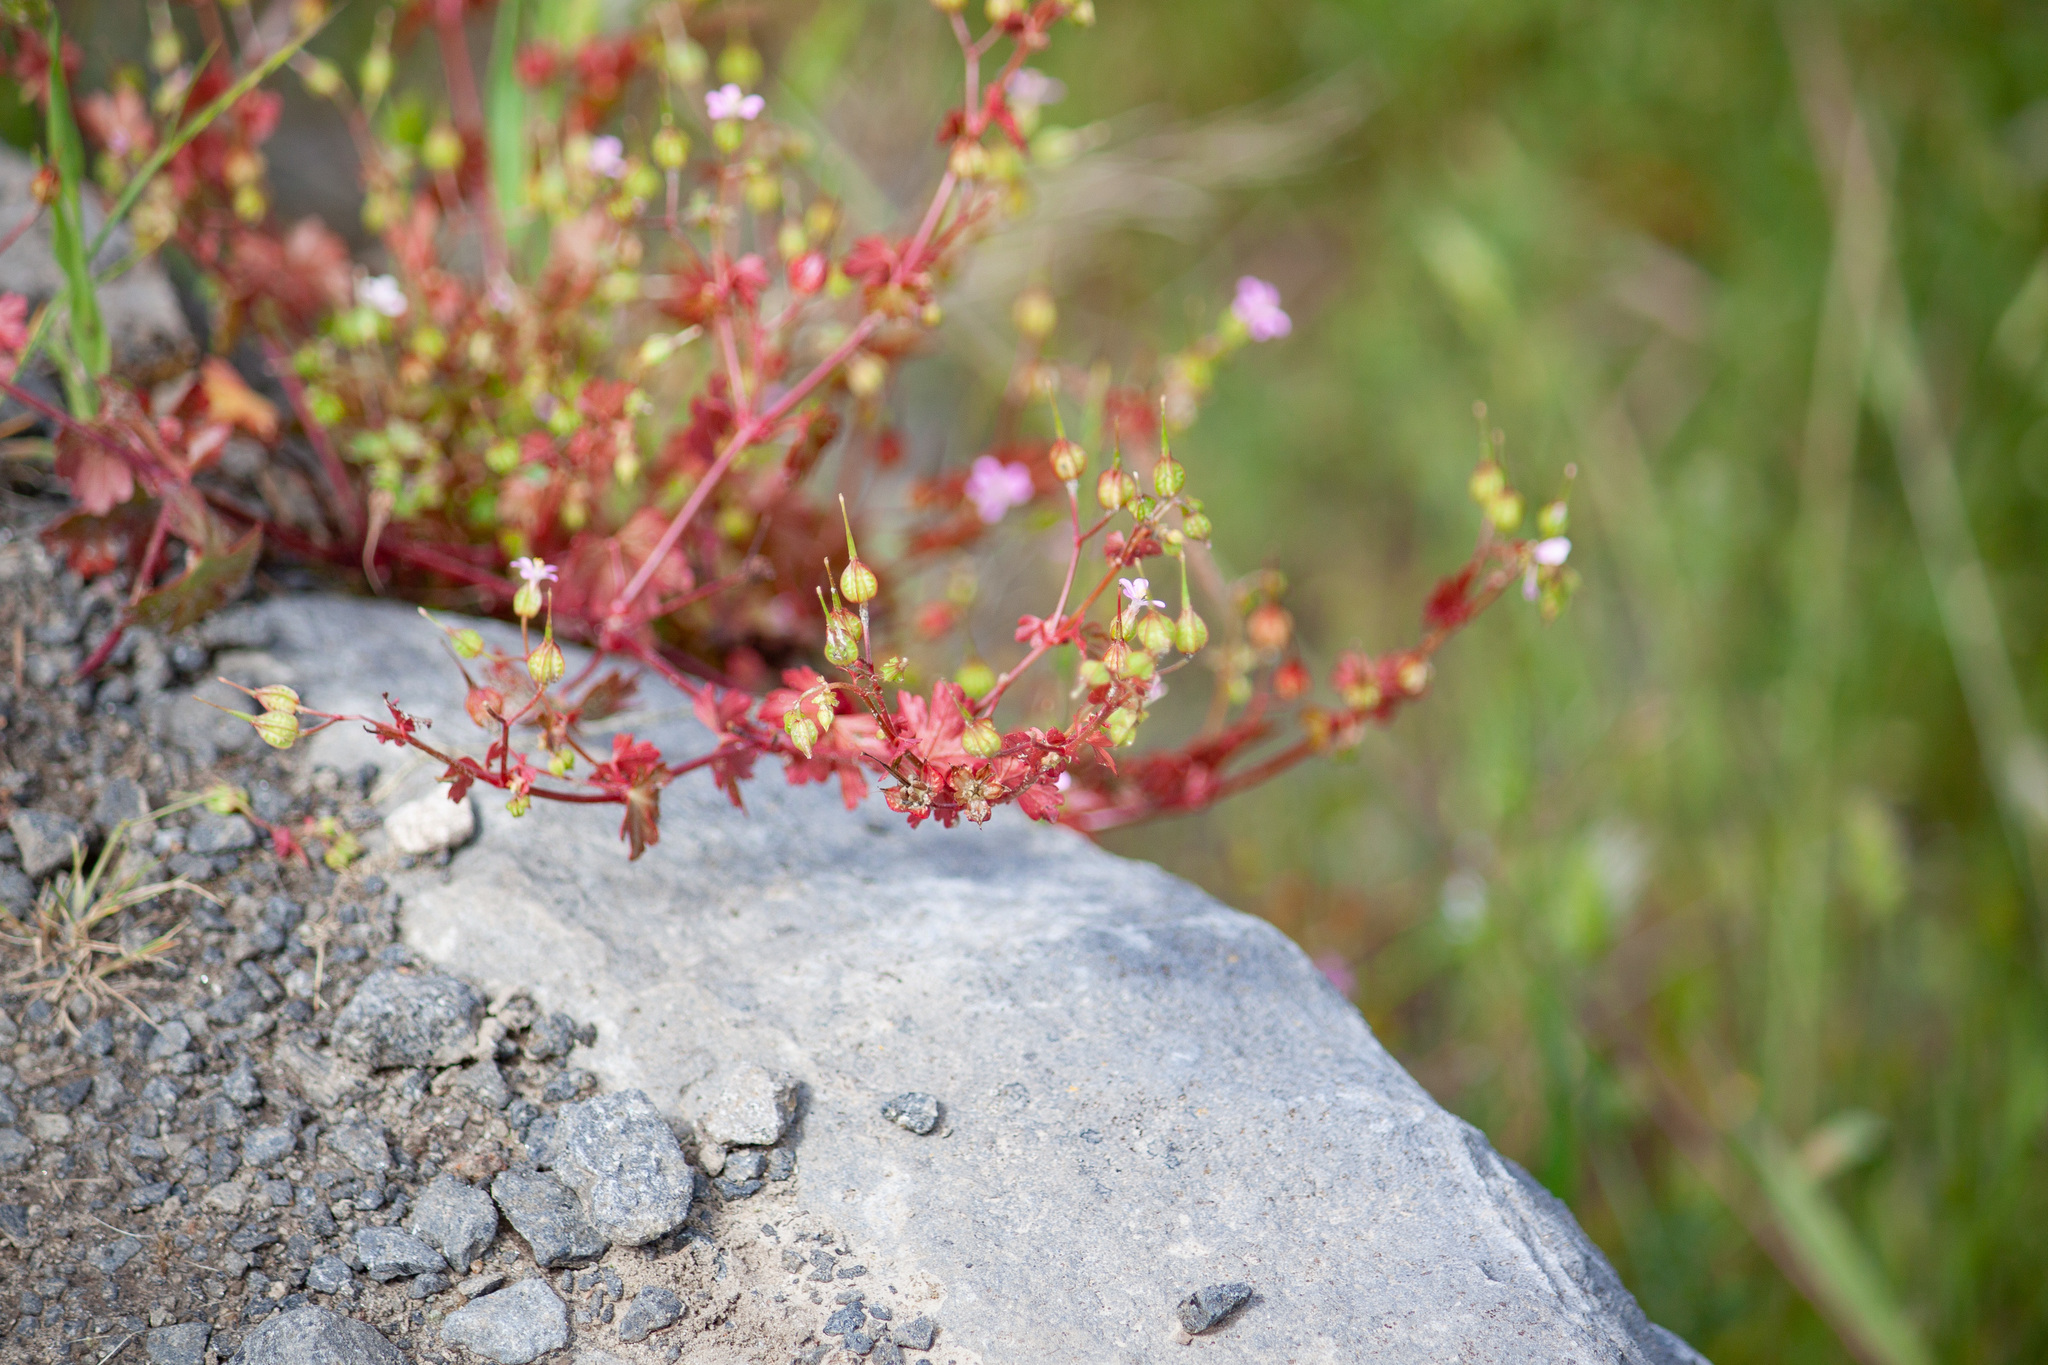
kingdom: Plantae
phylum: Tracheophyta
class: Magnoliopsida
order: Geraniales
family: Geraniaceae
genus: Geranium
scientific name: Geranium lucidum
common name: Shining crane's-bill
